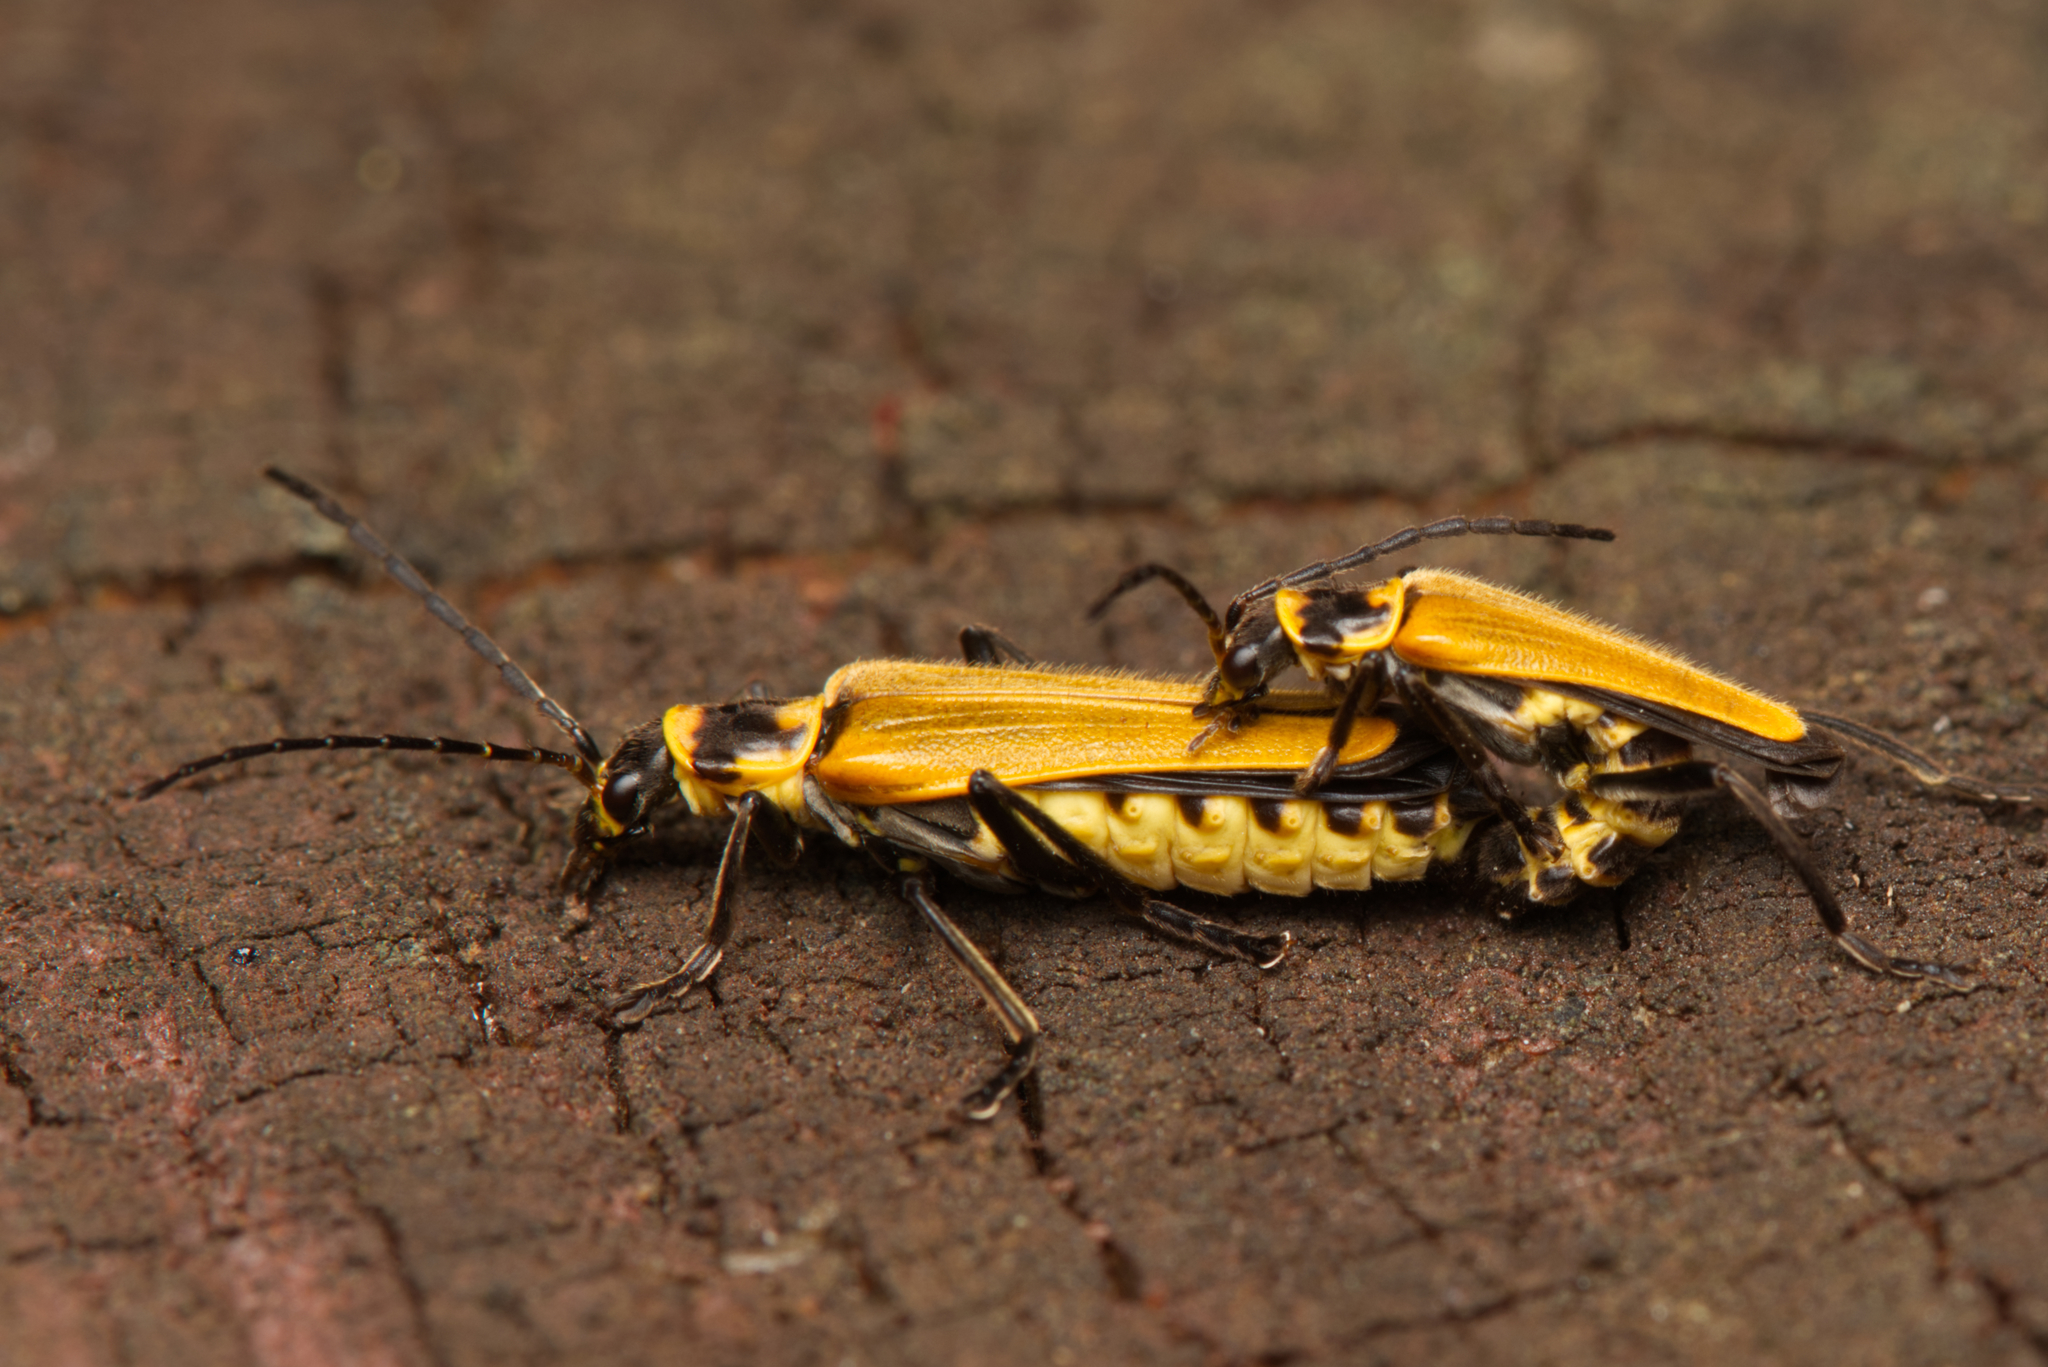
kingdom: Animalia
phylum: Arthropoda
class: Insecta
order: Coleoptera
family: Cantharidae
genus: Chauliognathus
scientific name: Chauliognathus
